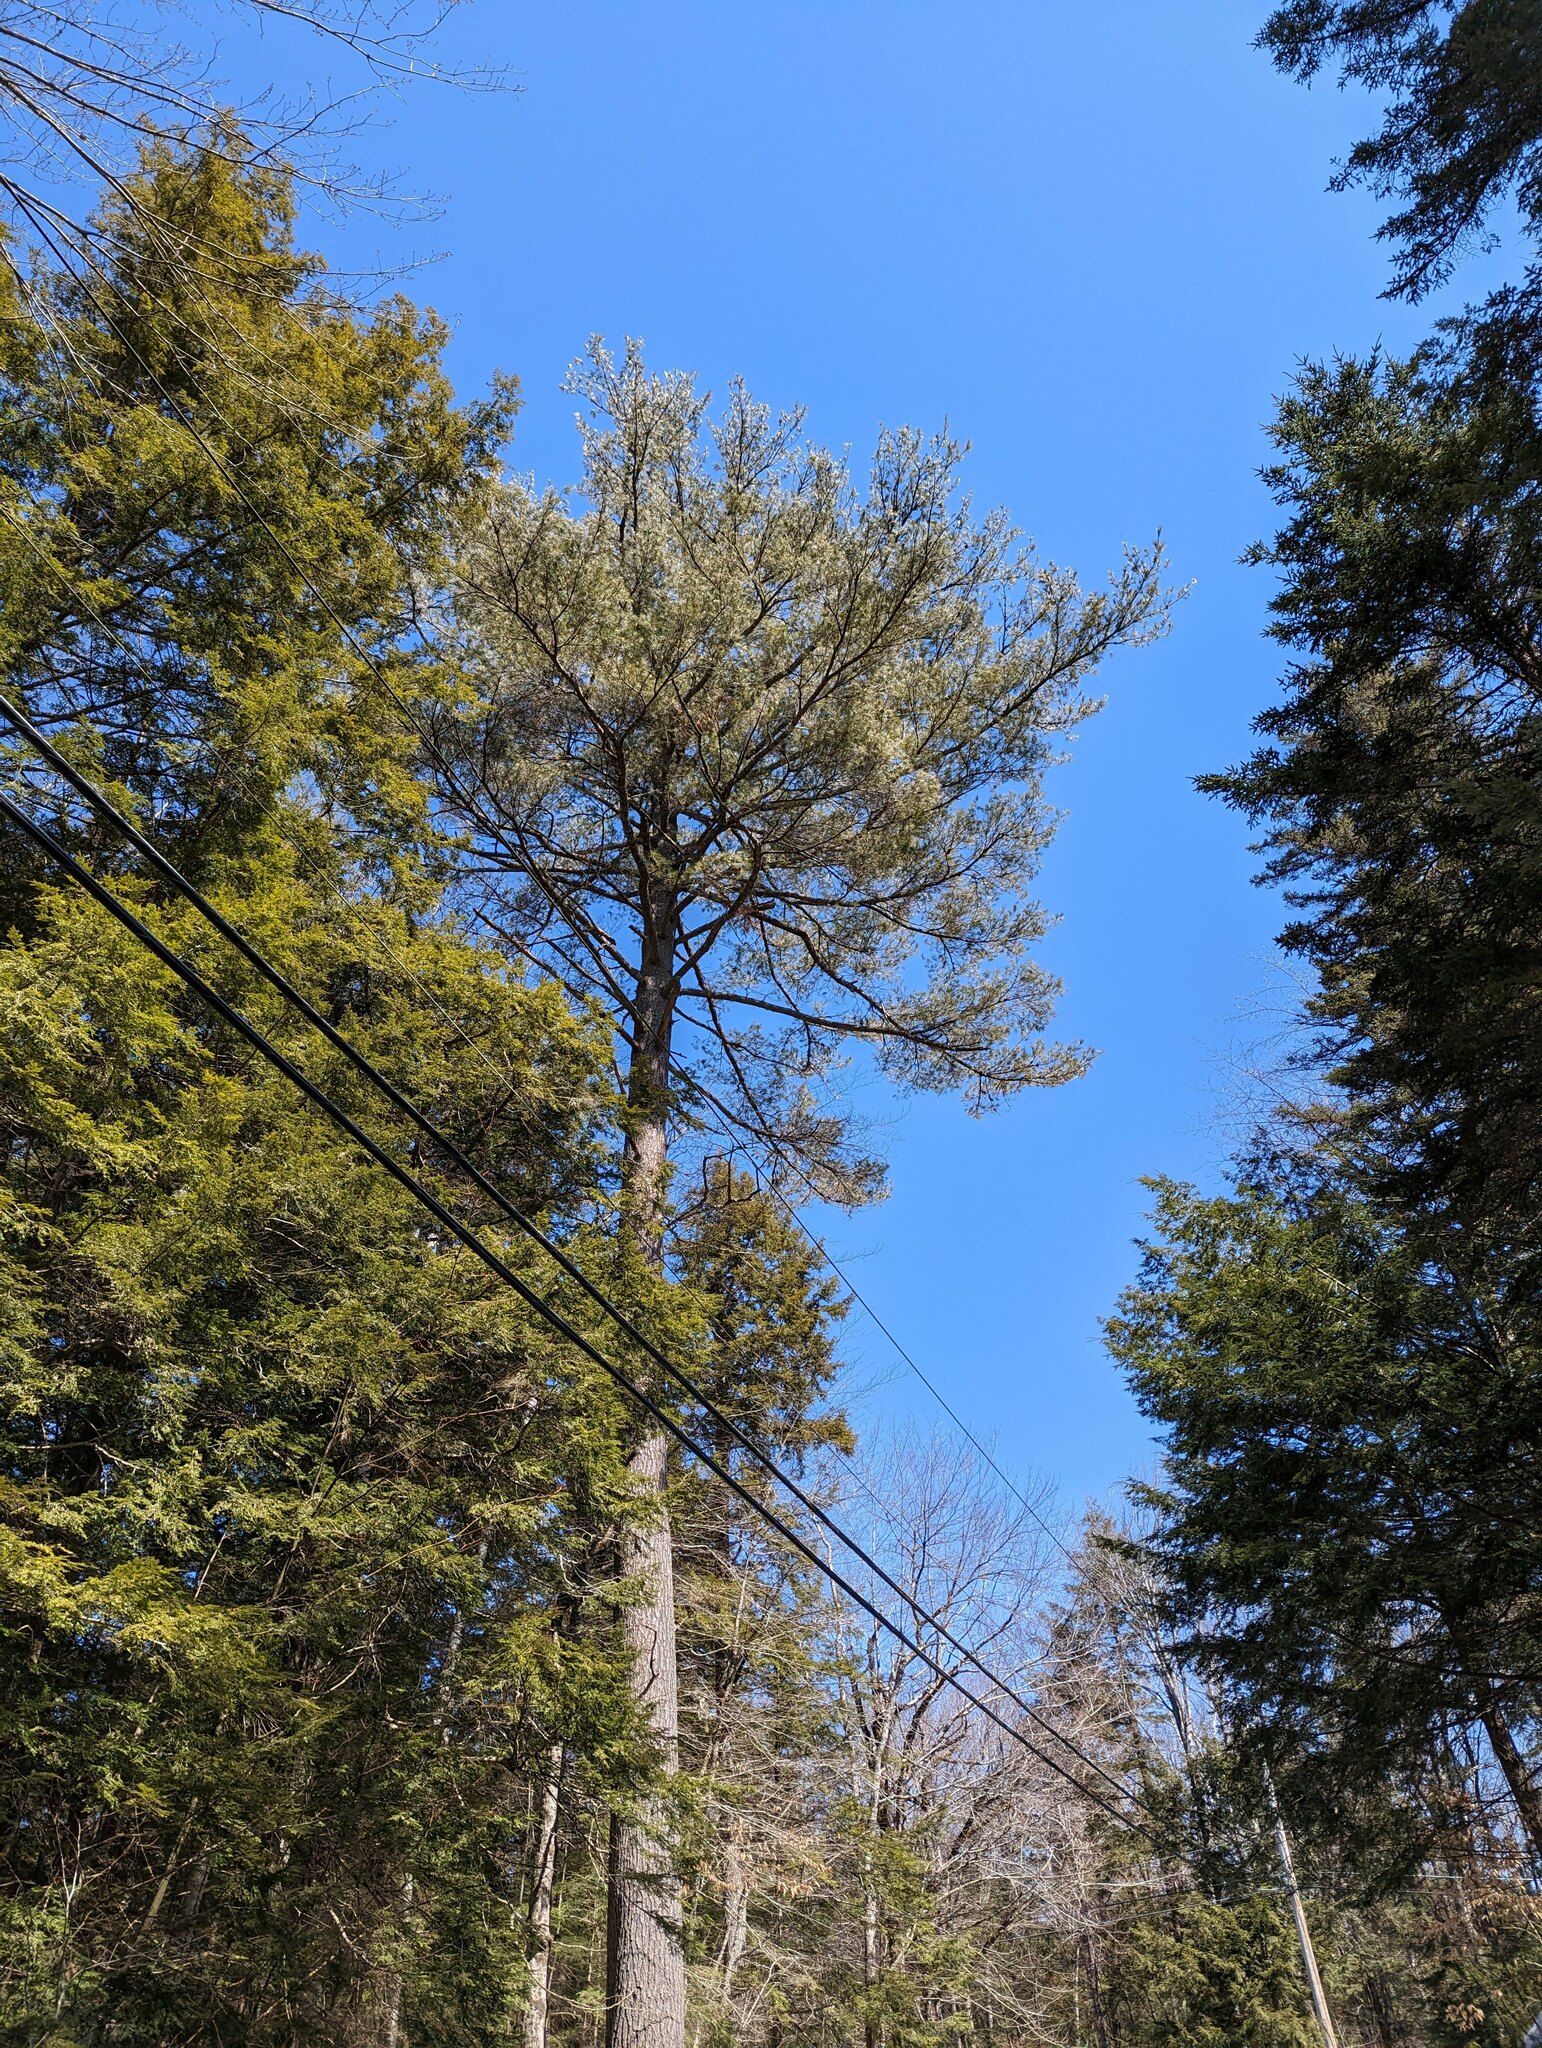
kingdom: Plantae
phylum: Tracheophyta
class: Pinopsida
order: Pinales
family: Pinaceae
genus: Pinus
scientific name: Pinus strobus
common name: Weymouth pine
